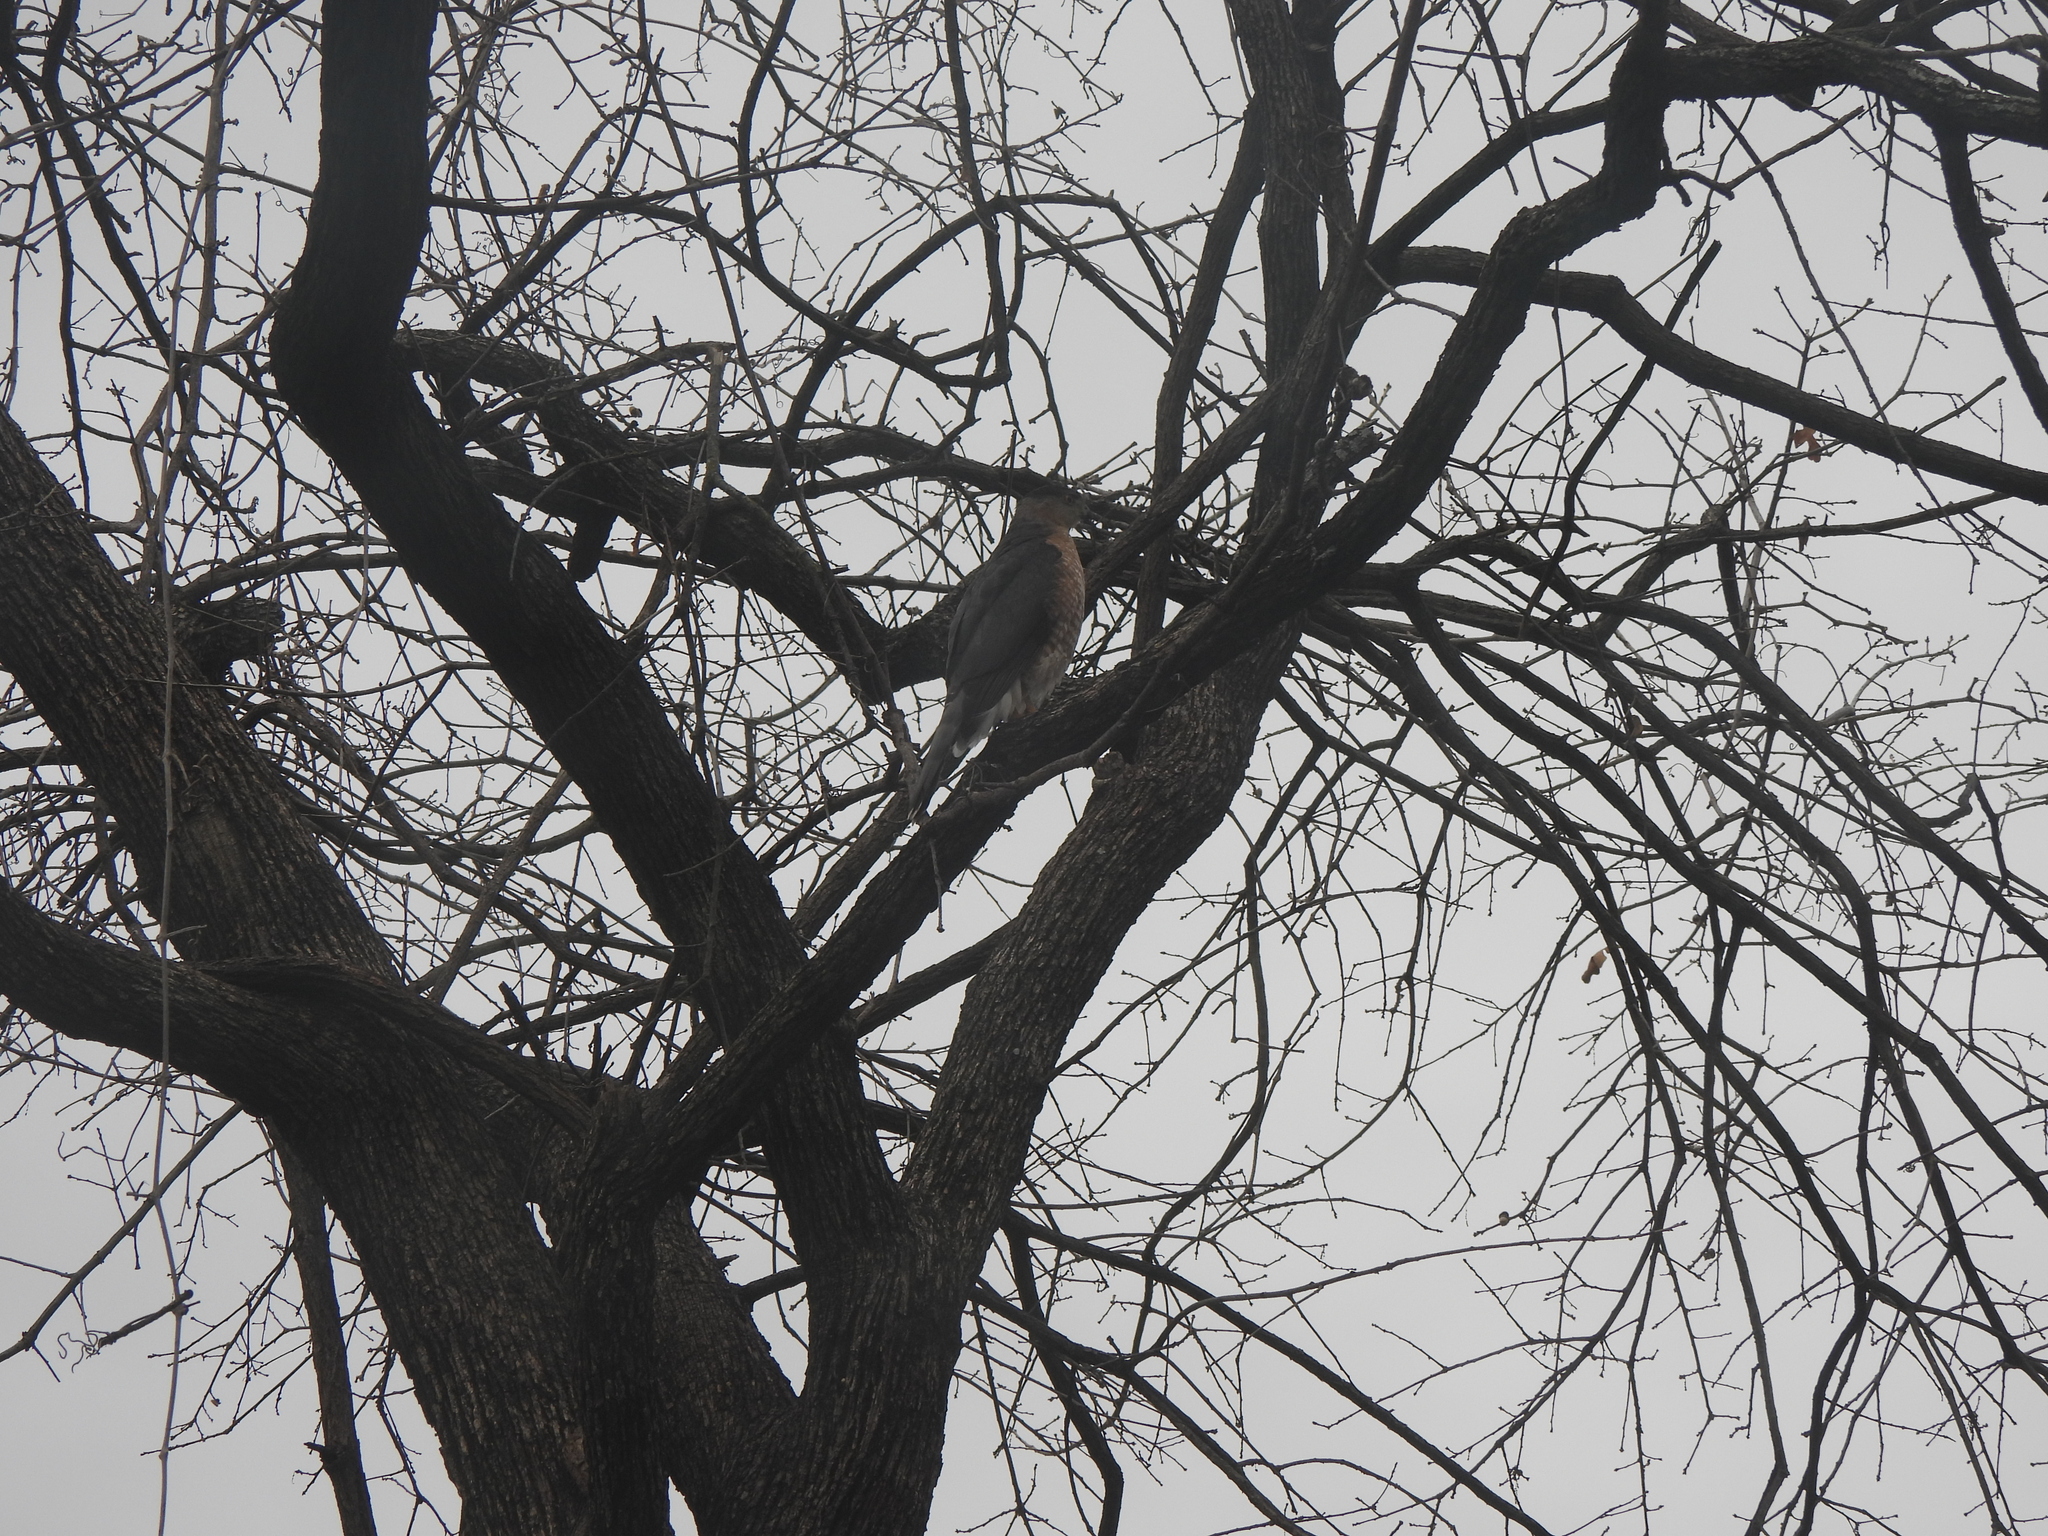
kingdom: Animalia
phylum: Chordata
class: Aves
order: Accipitriformes
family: Accipitridae
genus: Accipiter
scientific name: Accipiter cooperii
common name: Cooper's hawk
